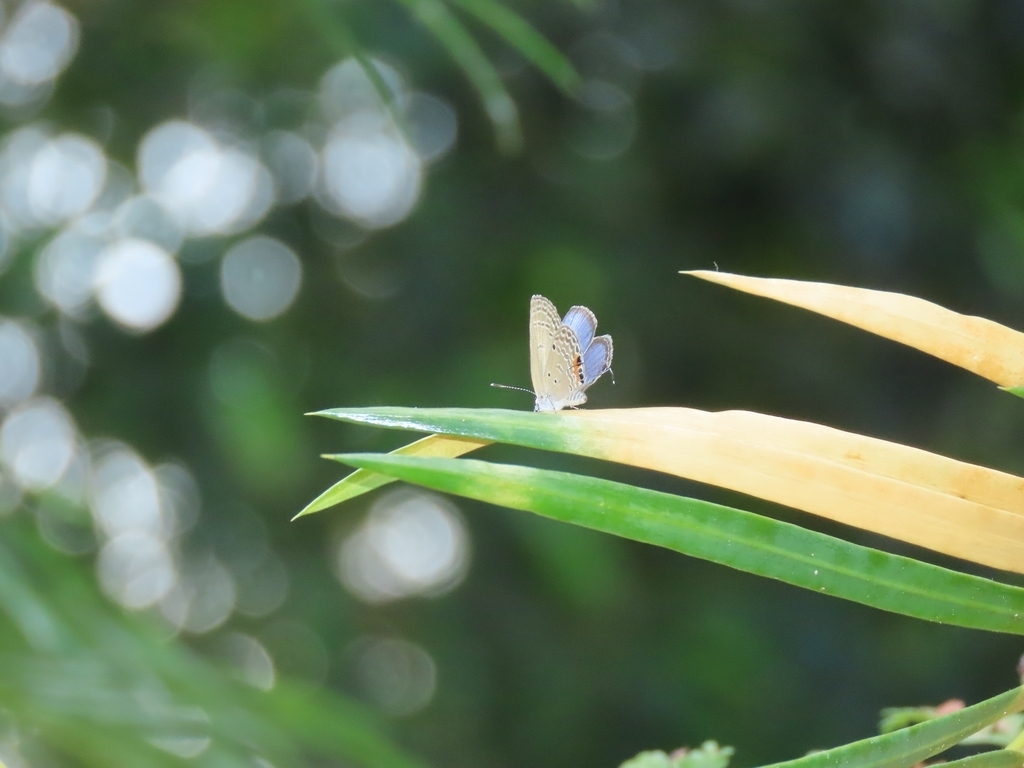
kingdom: Animalia
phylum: Arthropoda
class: Insecta
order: Lepidoptera
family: Lycaenidae
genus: Luthrodes
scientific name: Luthrodes pandava
